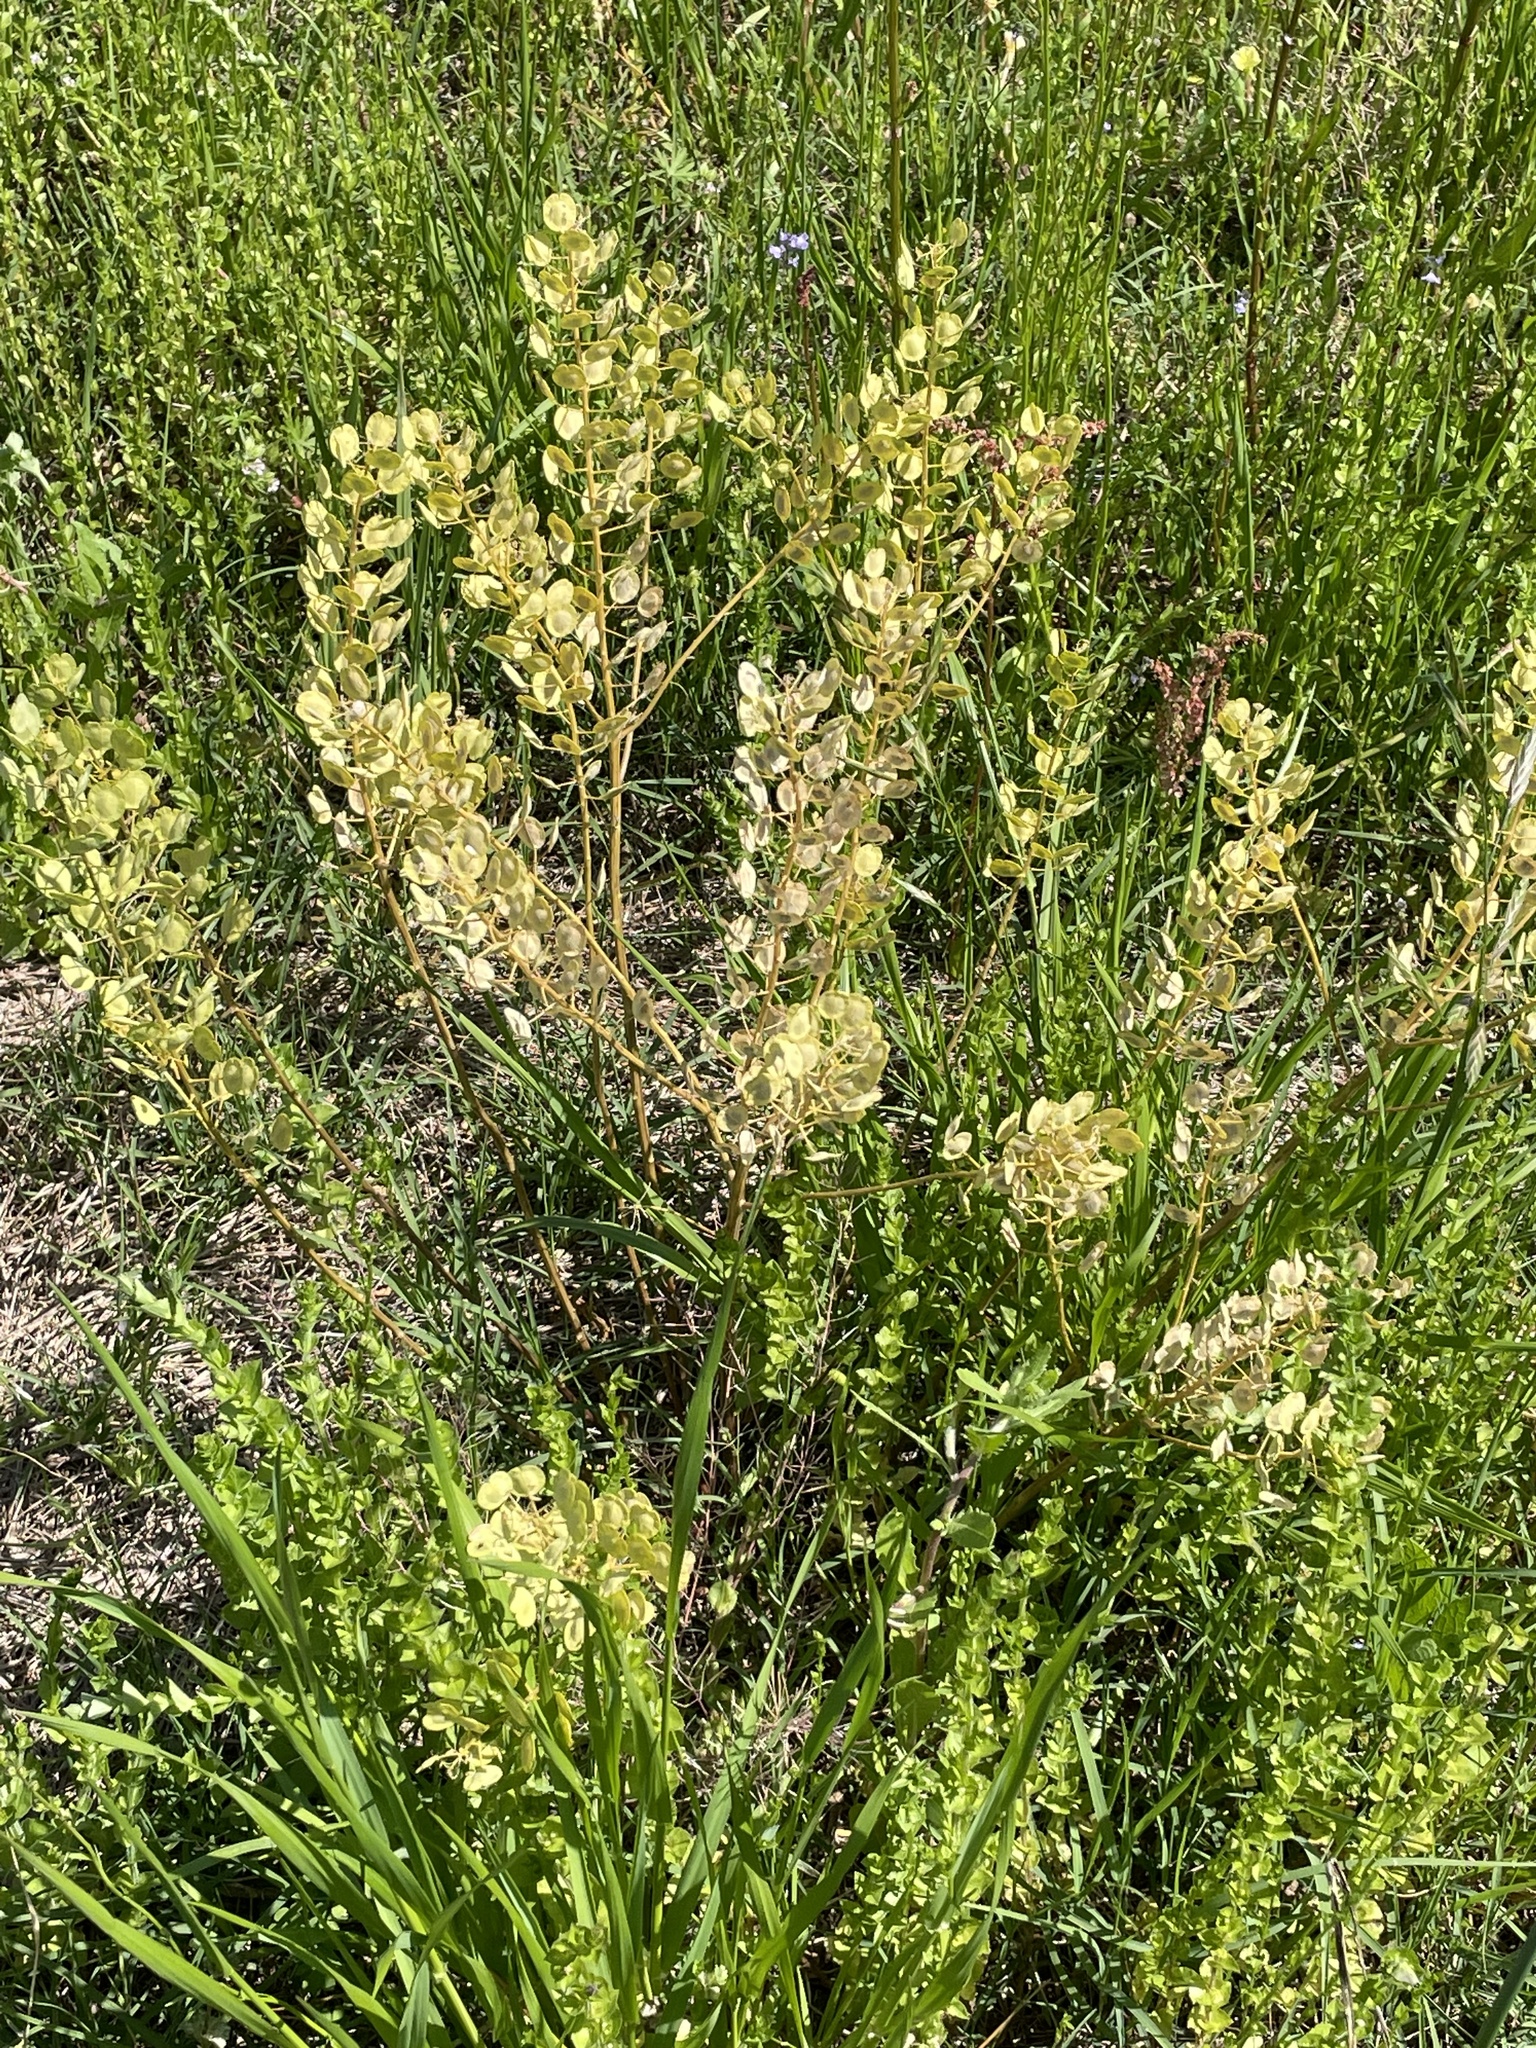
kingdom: Plantae
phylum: Tracheophyta
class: Magnoliopsida
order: Brassicales
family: Brassicaceae
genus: Thlaspi
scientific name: Thlaspi arvense
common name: Field pennycress
